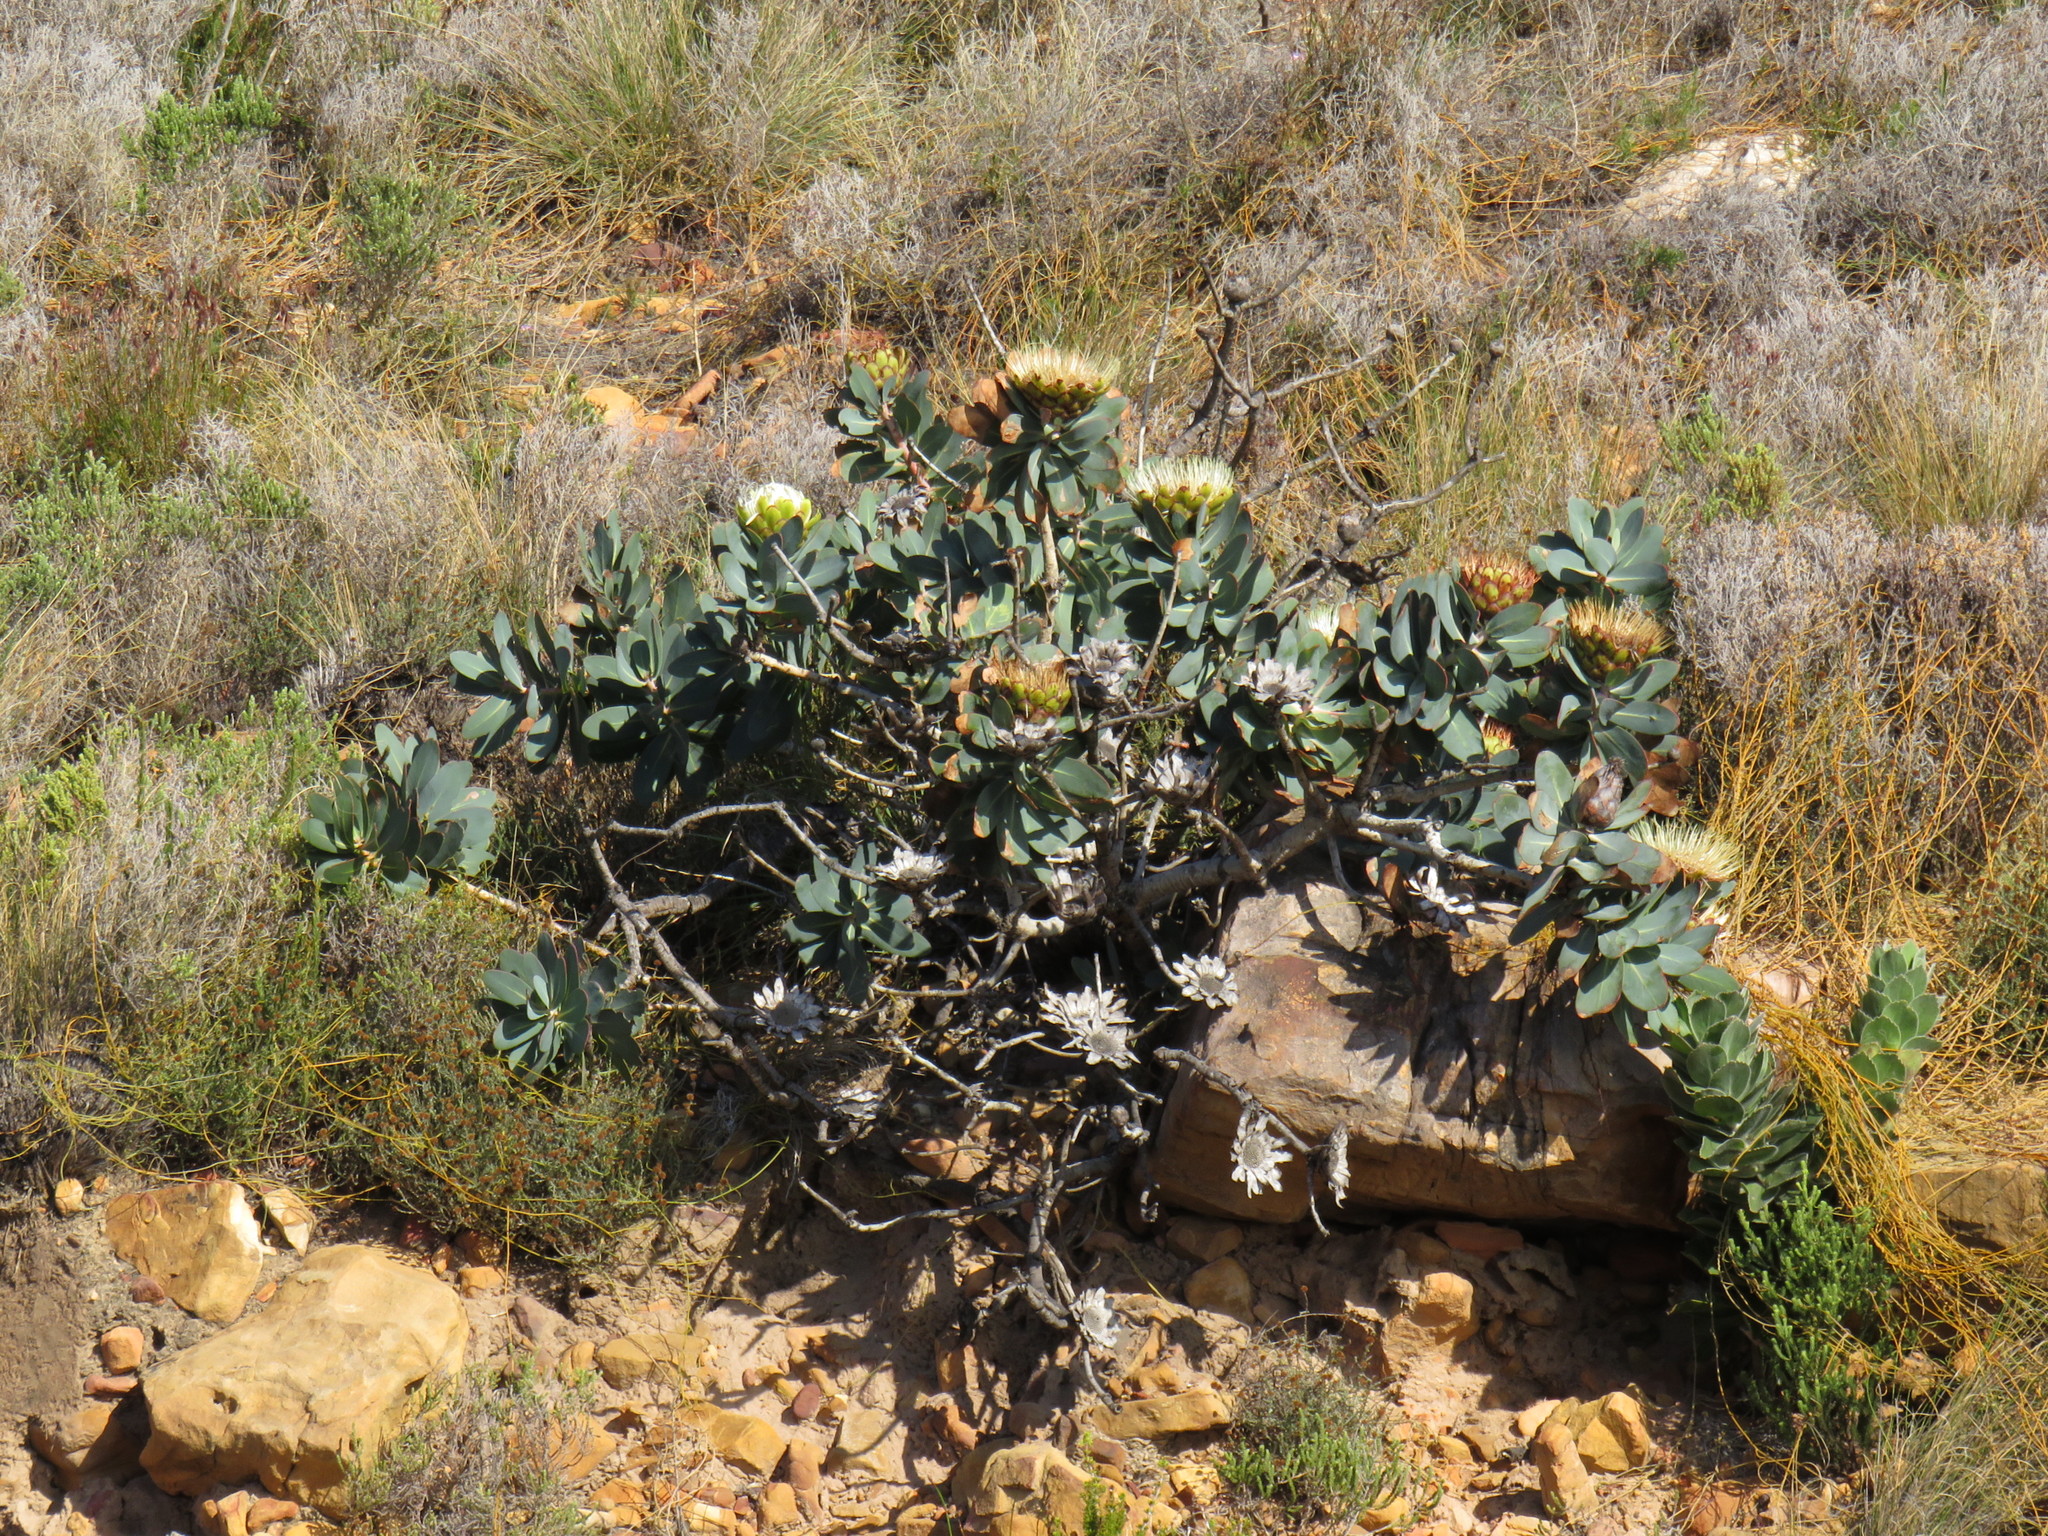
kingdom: Plantae
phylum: Tracheophyta
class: Magnoliopsida
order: Proteales
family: Proteaceae
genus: Protea
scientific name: Protea nitida
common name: Tree protea
